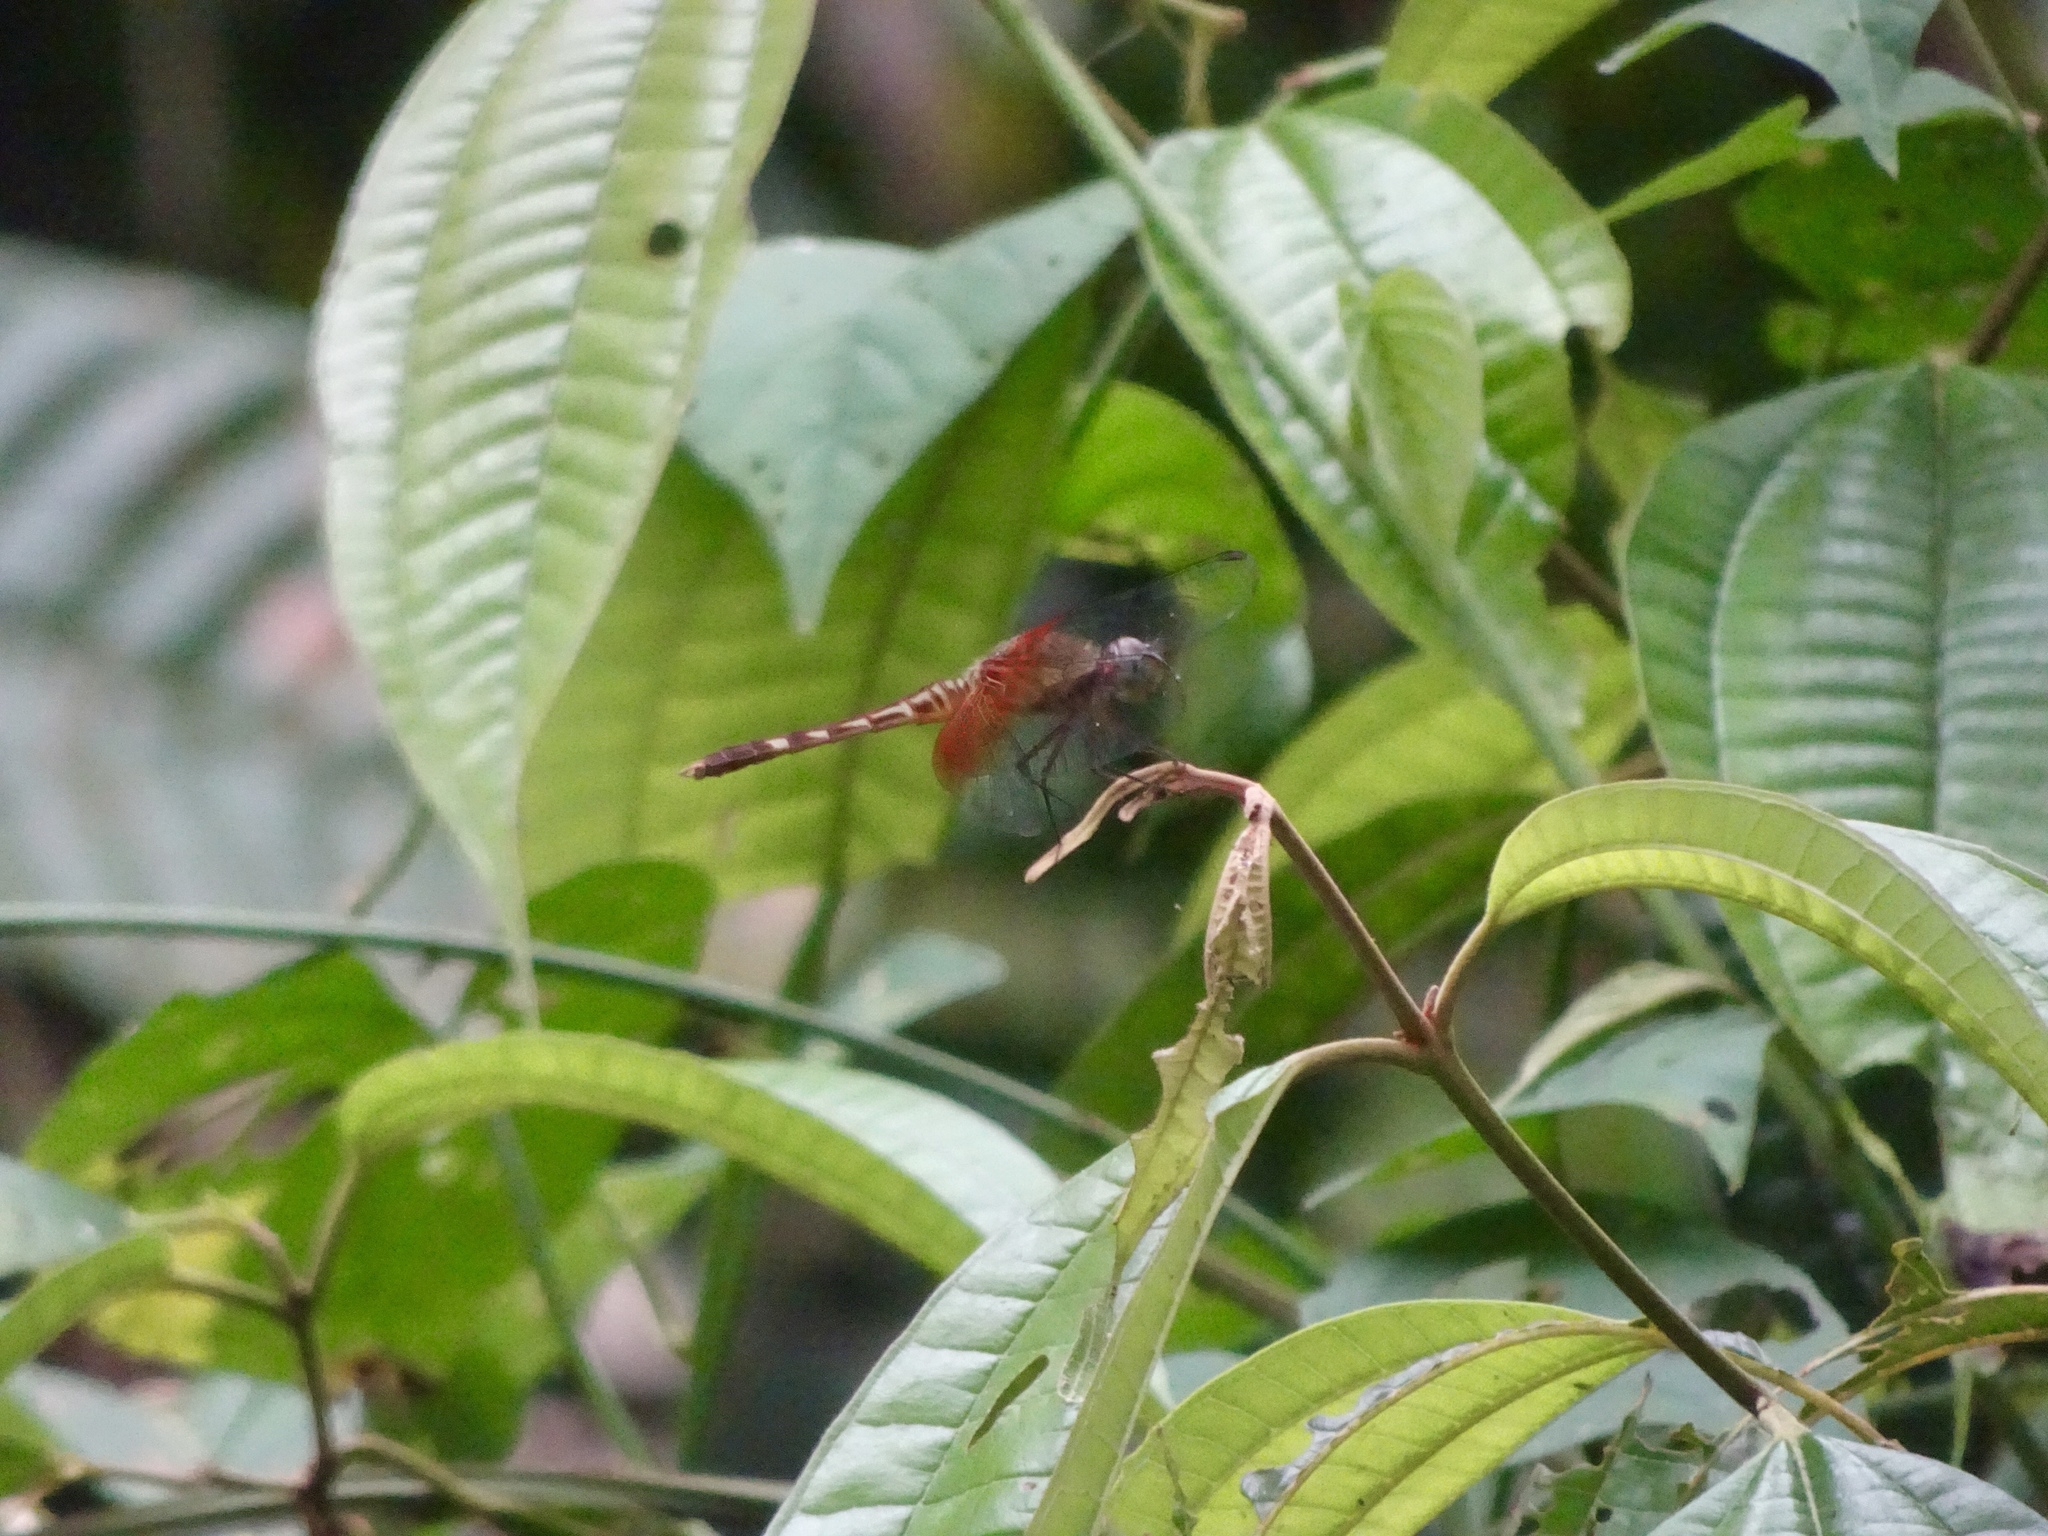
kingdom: Animalia
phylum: Arthropoda
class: Insecta
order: Odonata
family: Libellulidae
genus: Erythrodiplax
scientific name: Erythrodiplax fervida
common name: Red-mantled dragonlet
